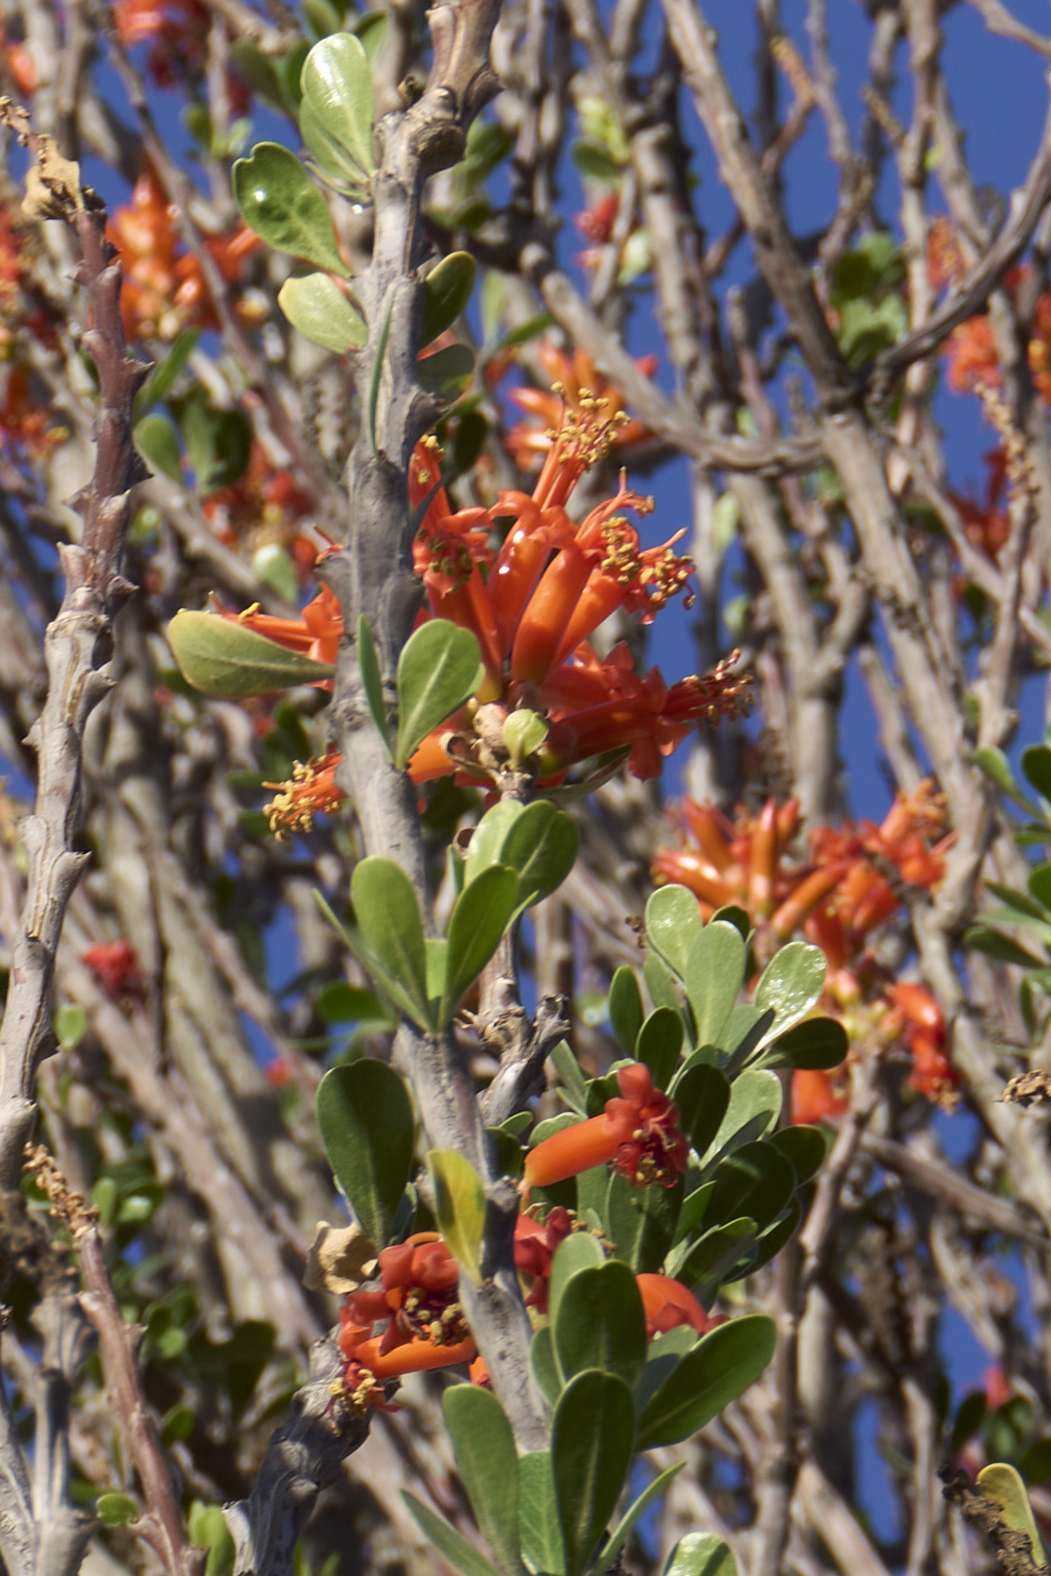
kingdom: Plantae
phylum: Tracheophyta
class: Magnoliopsida
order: Ericales
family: Fouquieriaceae
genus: Fouquieria
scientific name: Fouquieria formosa
